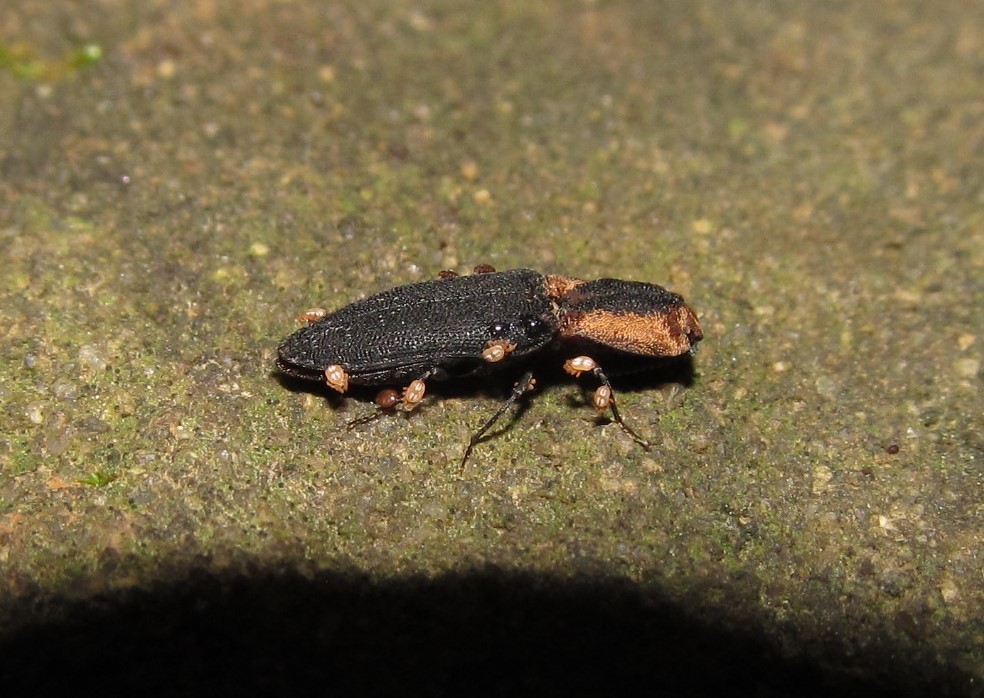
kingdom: Animalia
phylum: Arthropoda
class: Insecta
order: Coleoptera
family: Elateridae
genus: Lacon
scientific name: Lacon discoideus
